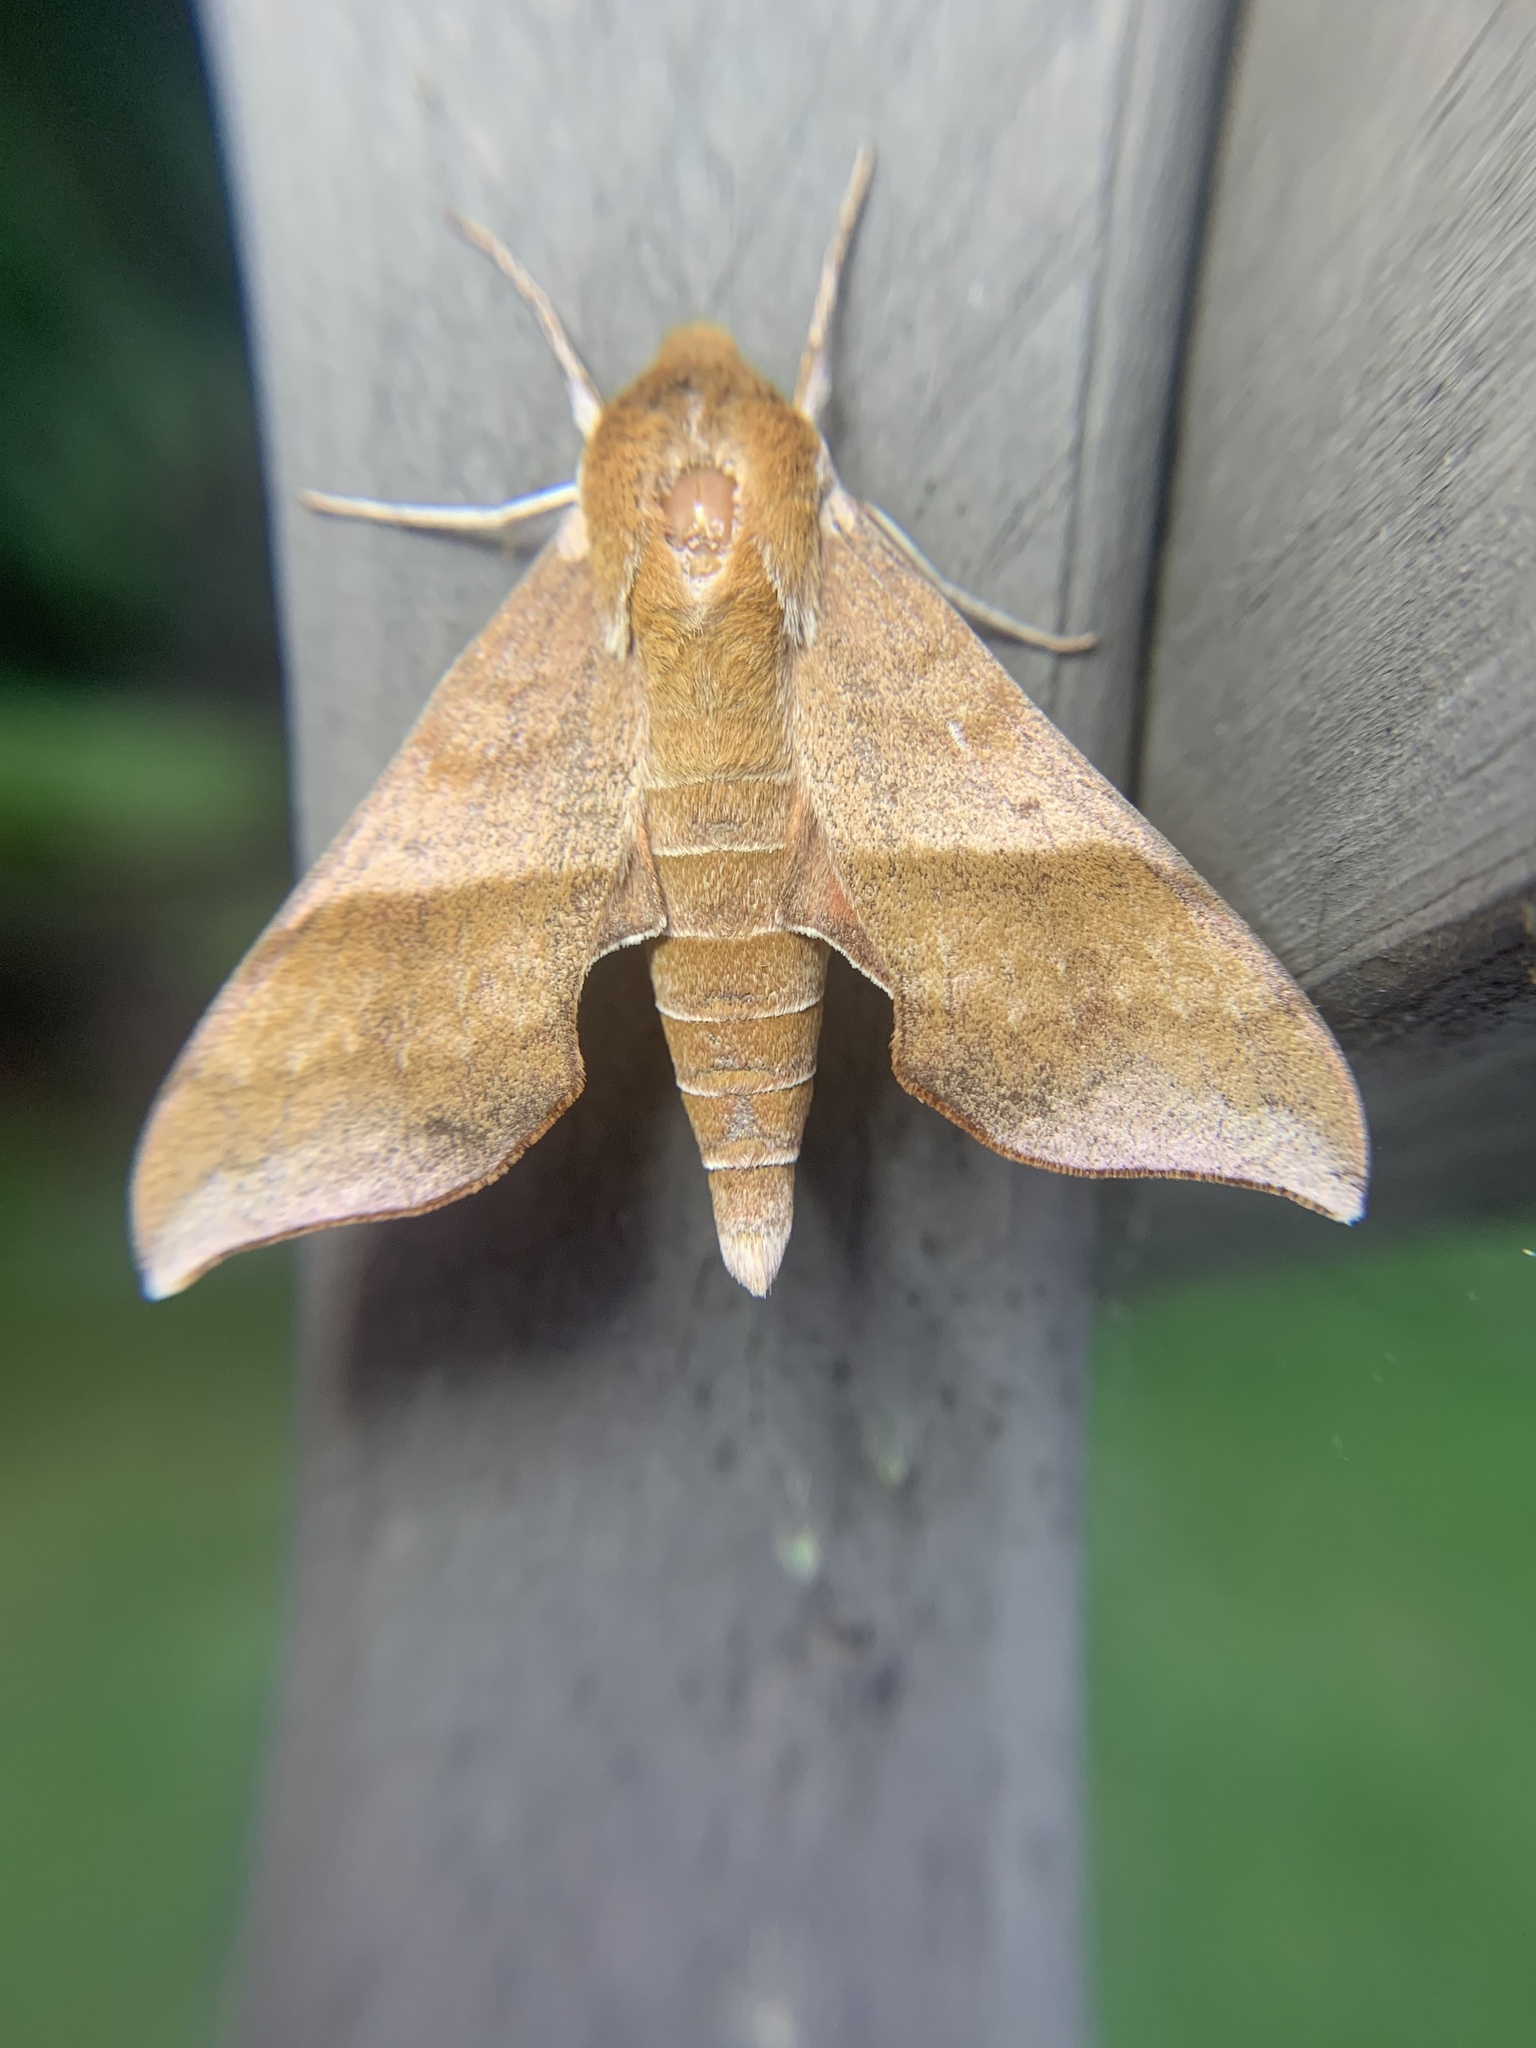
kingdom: Animalia
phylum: Arthropoda
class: Insecta
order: Lepidoptera
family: Sphingidae
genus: Darapsa
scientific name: Darapsa choerilus
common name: Azalea sphinx
